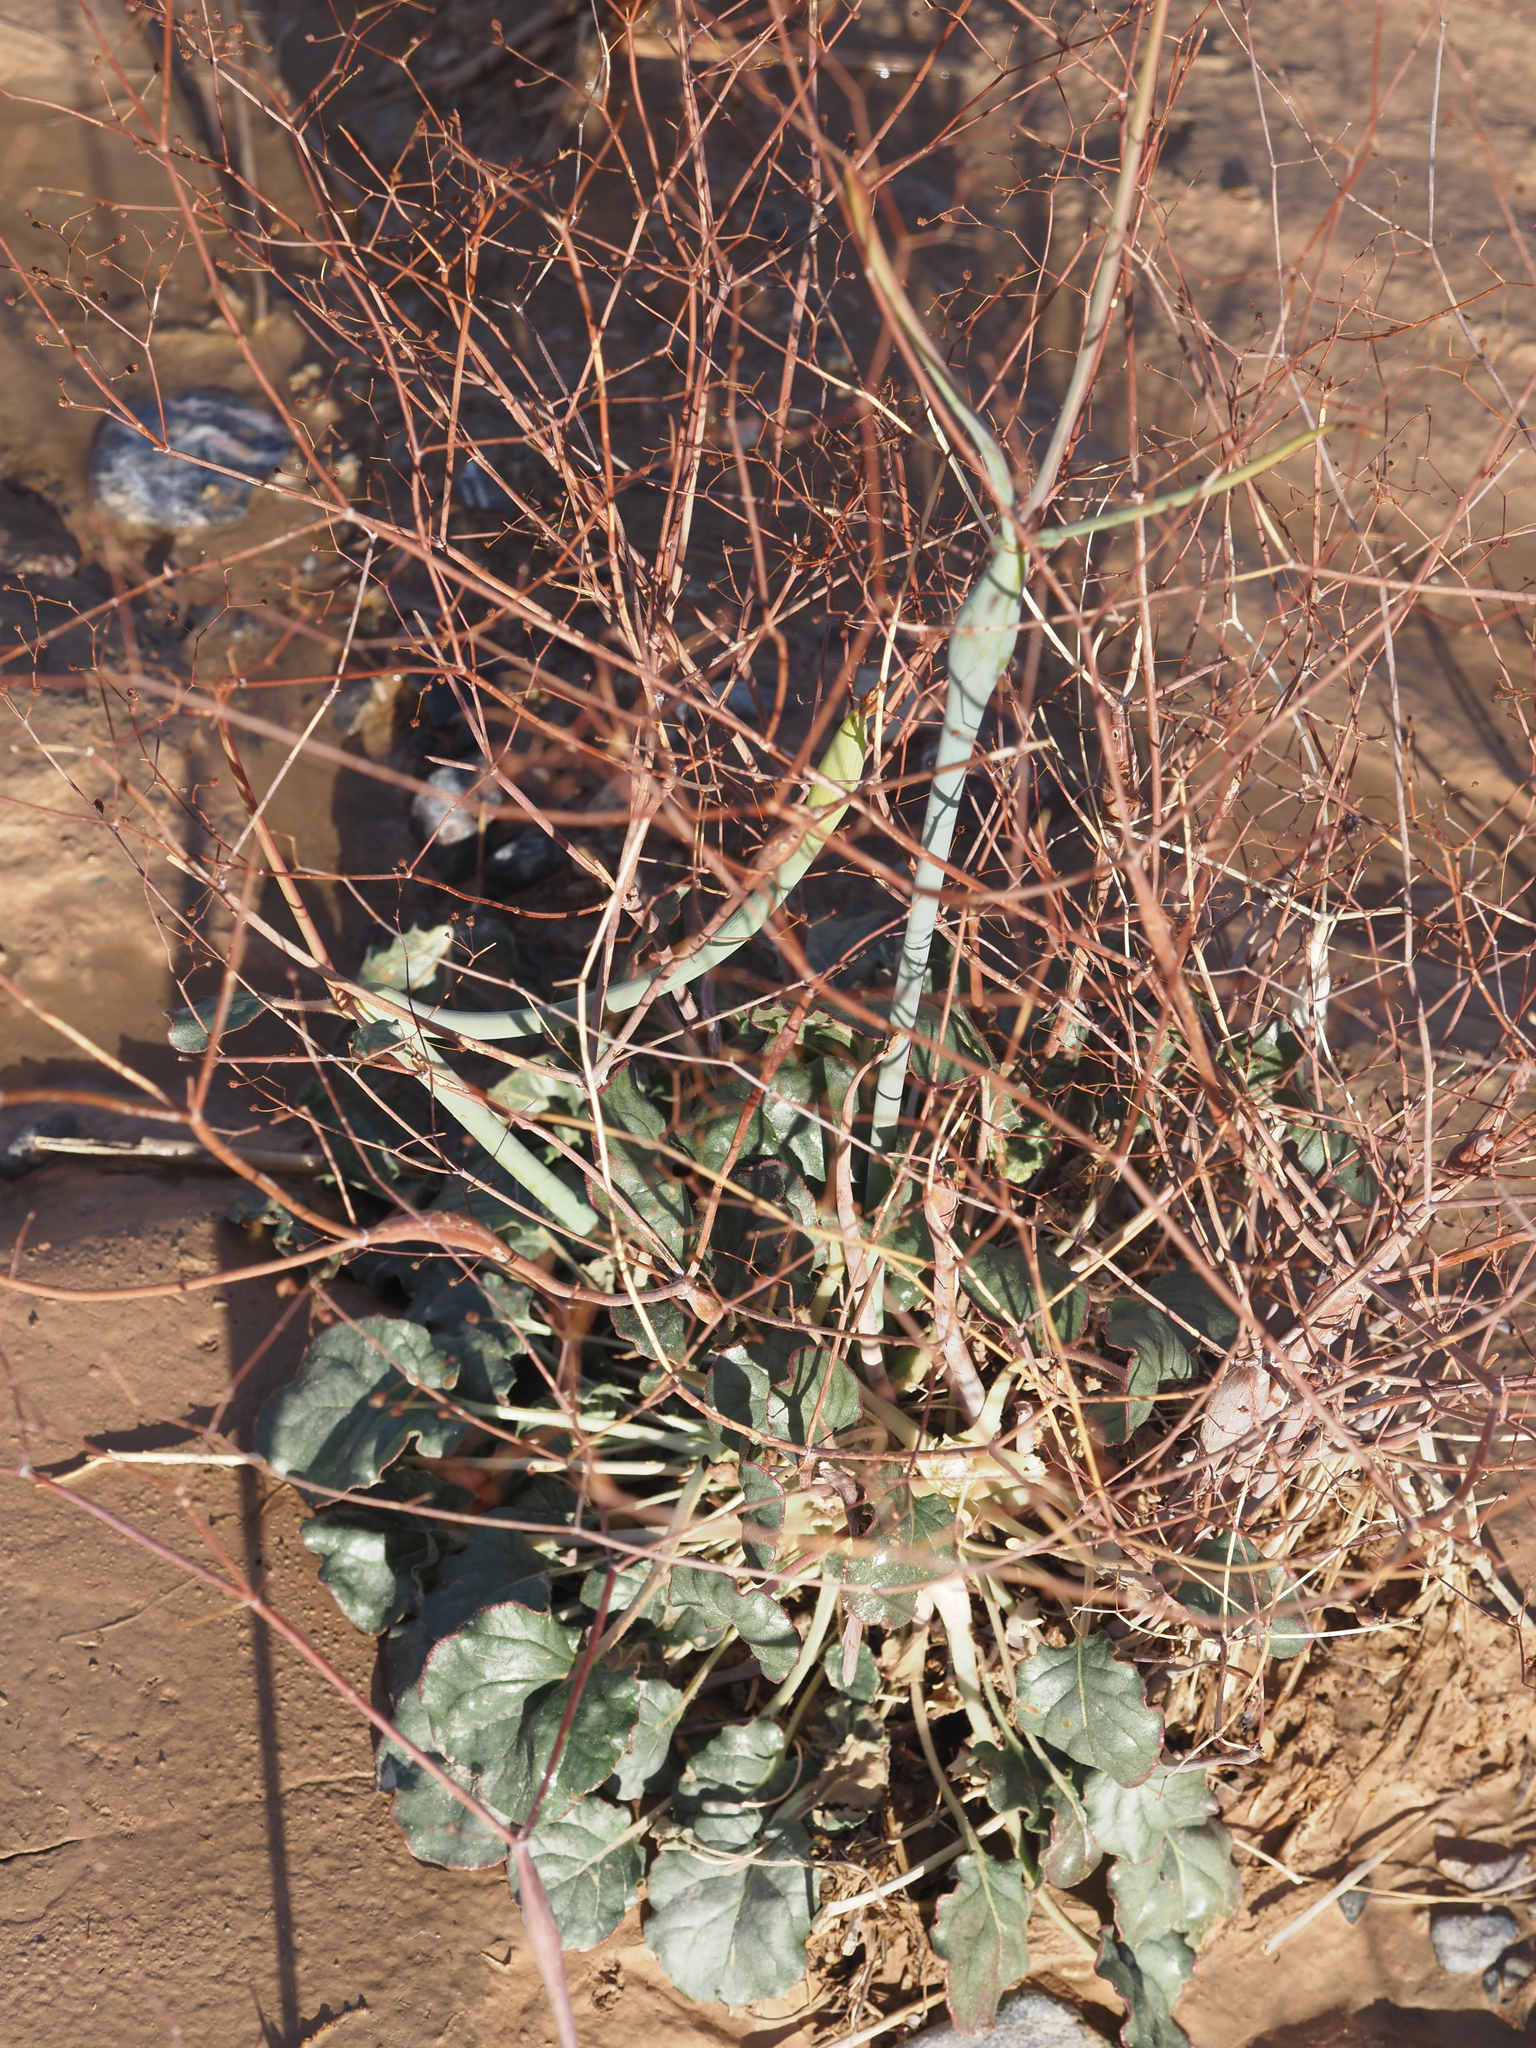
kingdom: Plantae
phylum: Tracheophyta
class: Magnoliopsida
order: Caryophyllales
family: Polygonaceae
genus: Eriogonum
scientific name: Eriogonum inflatum
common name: Desert trumpet
